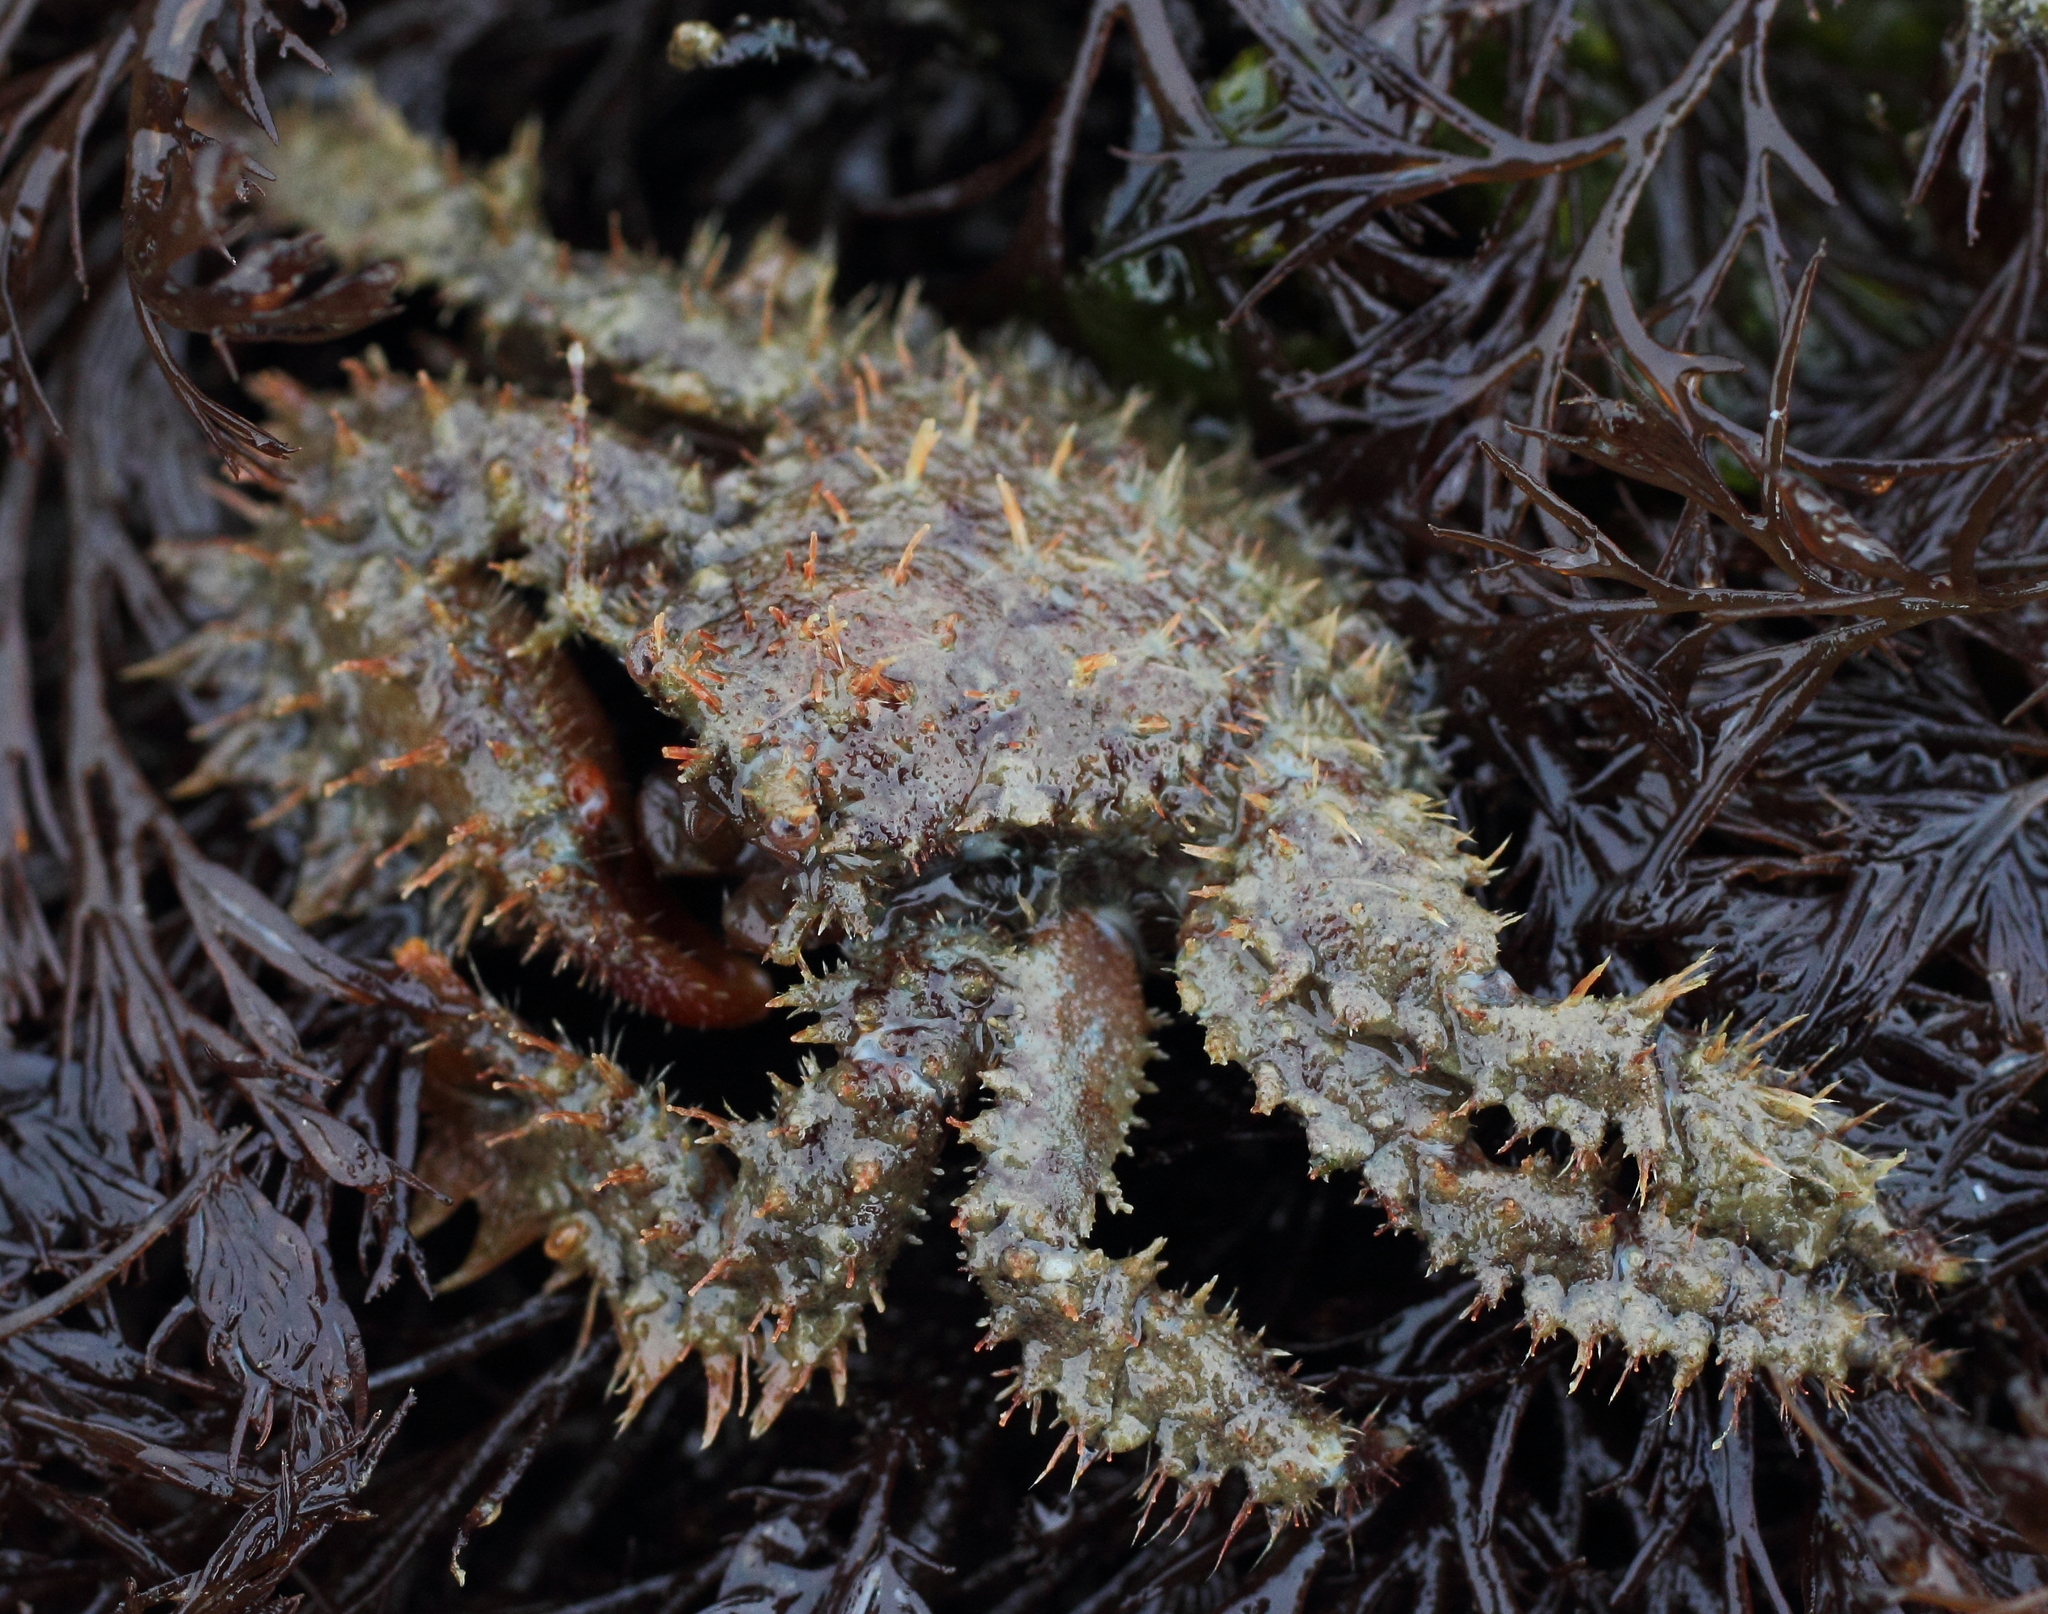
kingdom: Animalia
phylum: Arthropoda
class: Malacostraca
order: Decapoda
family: Hapalogastridae
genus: Hapalogaster
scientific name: Hapalogaster mertensii
